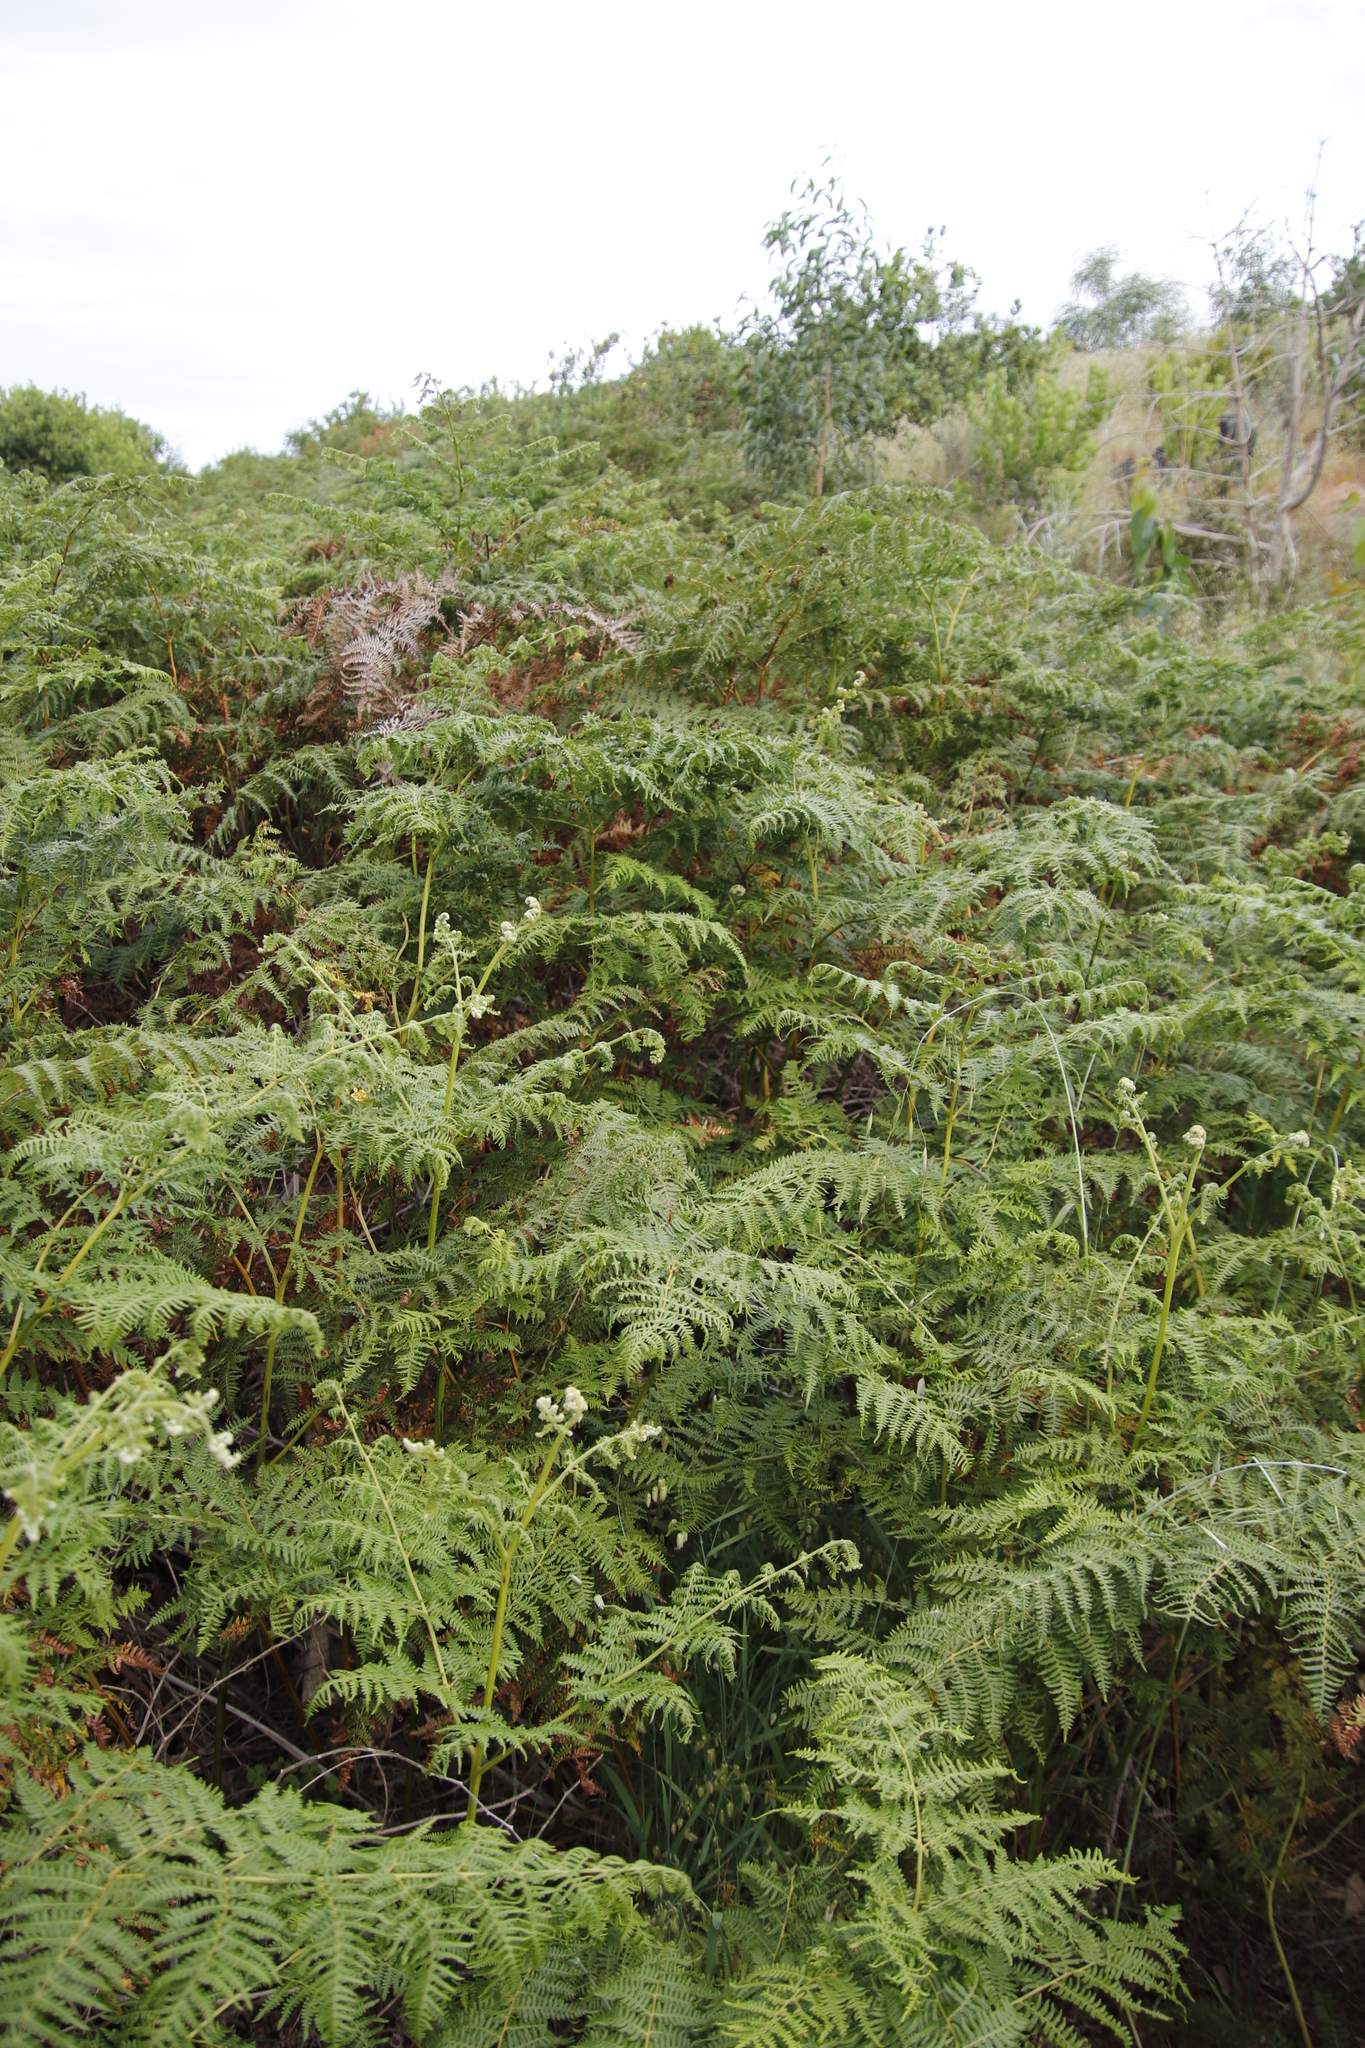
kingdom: Plantae
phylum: Tracheophyta
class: Polypodiopsida
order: Polypodiales
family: Dennstaedtiaceae
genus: Pteridium
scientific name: Pteridium aquilinum
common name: Bracken
